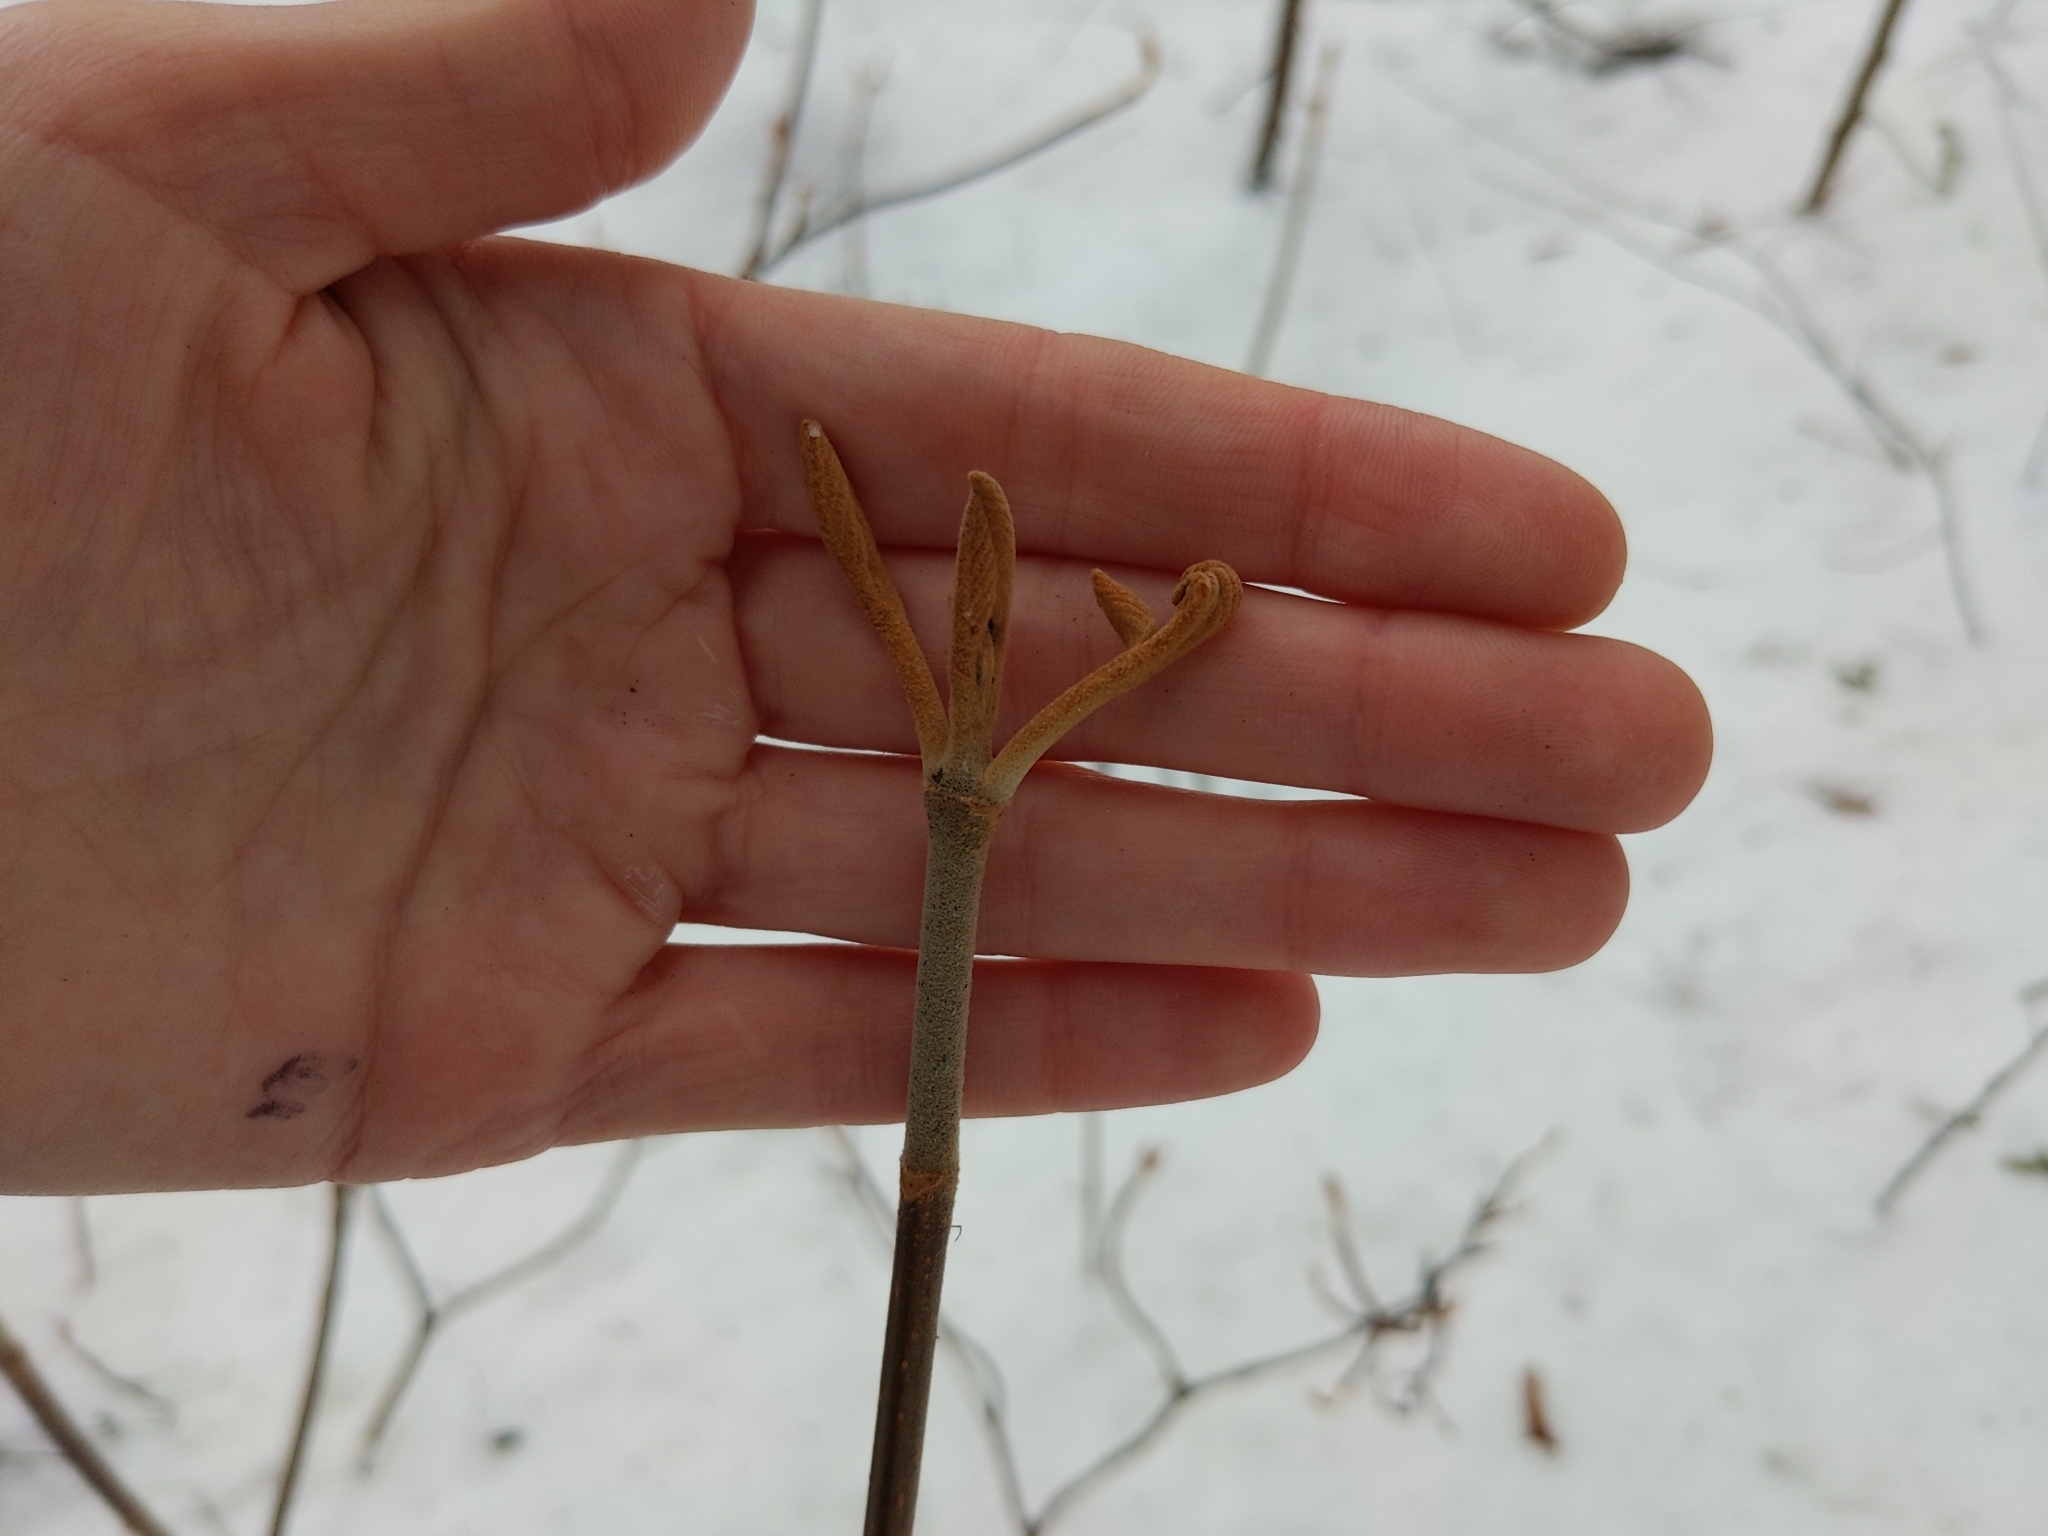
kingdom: Plantae
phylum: Tracheophyta
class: Magnoliopsida
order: Dipsacales
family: Viburnaceae
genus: Viburnum
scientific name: Viburnum lantanoides
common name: Hobblebush
